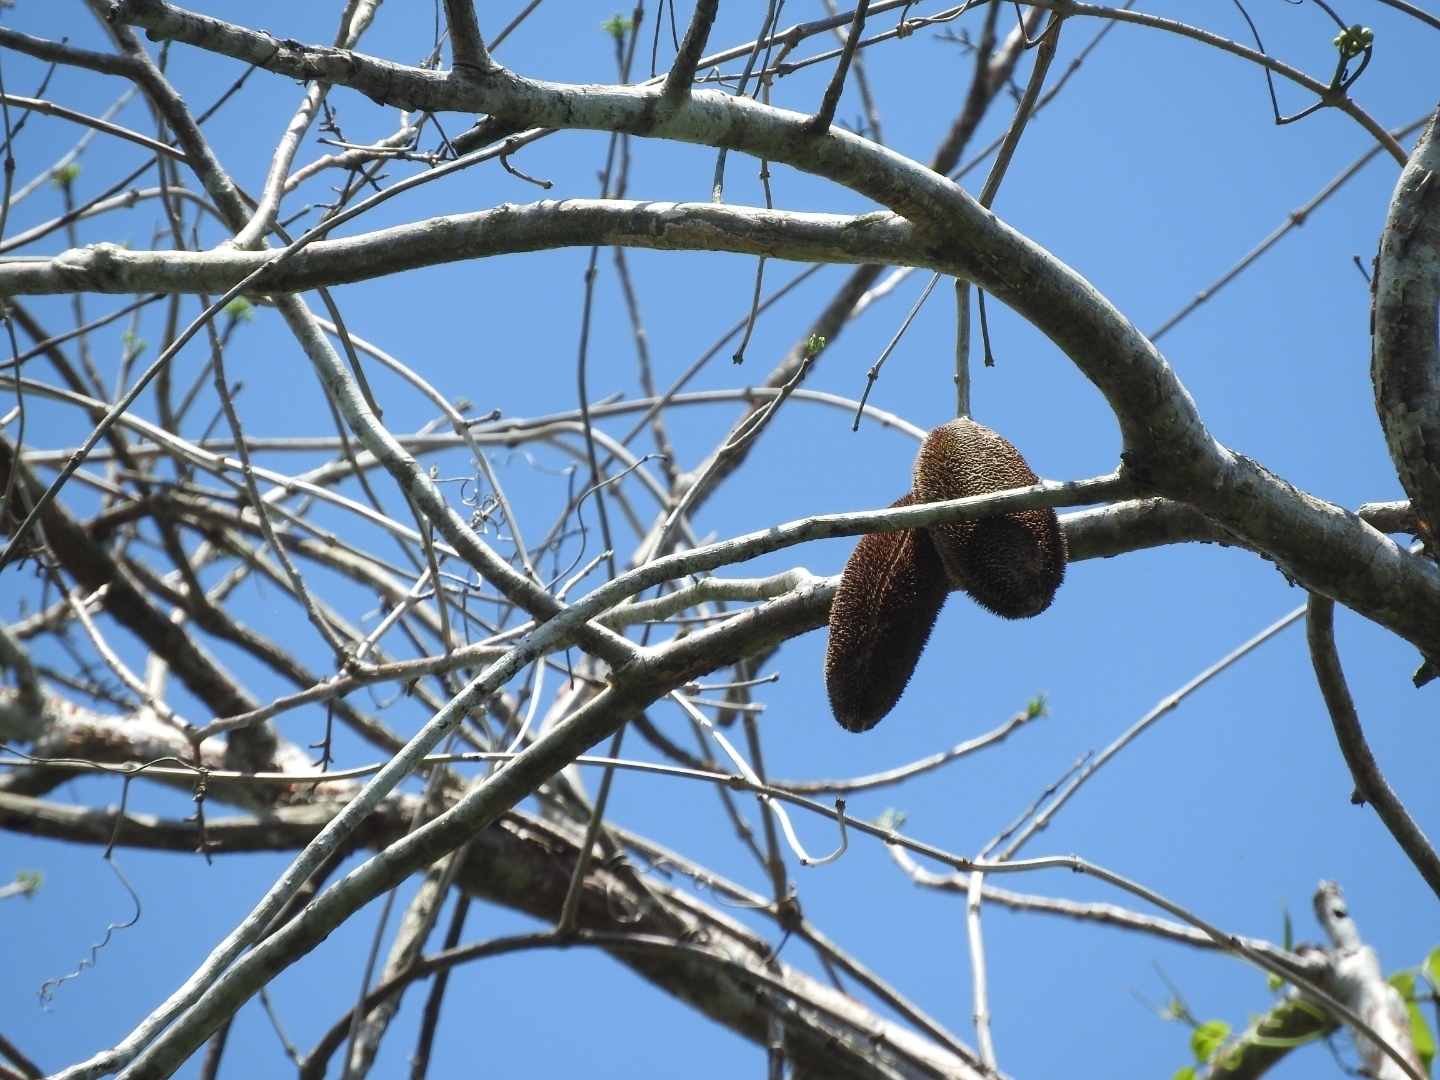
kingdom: Plantae
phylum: Tracheophyta
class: Magnoliopsida
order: Lamiales
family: Bignoniaceae
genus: Amphilophium
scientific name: Amphilophium crucigerum
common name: Monkey comb
